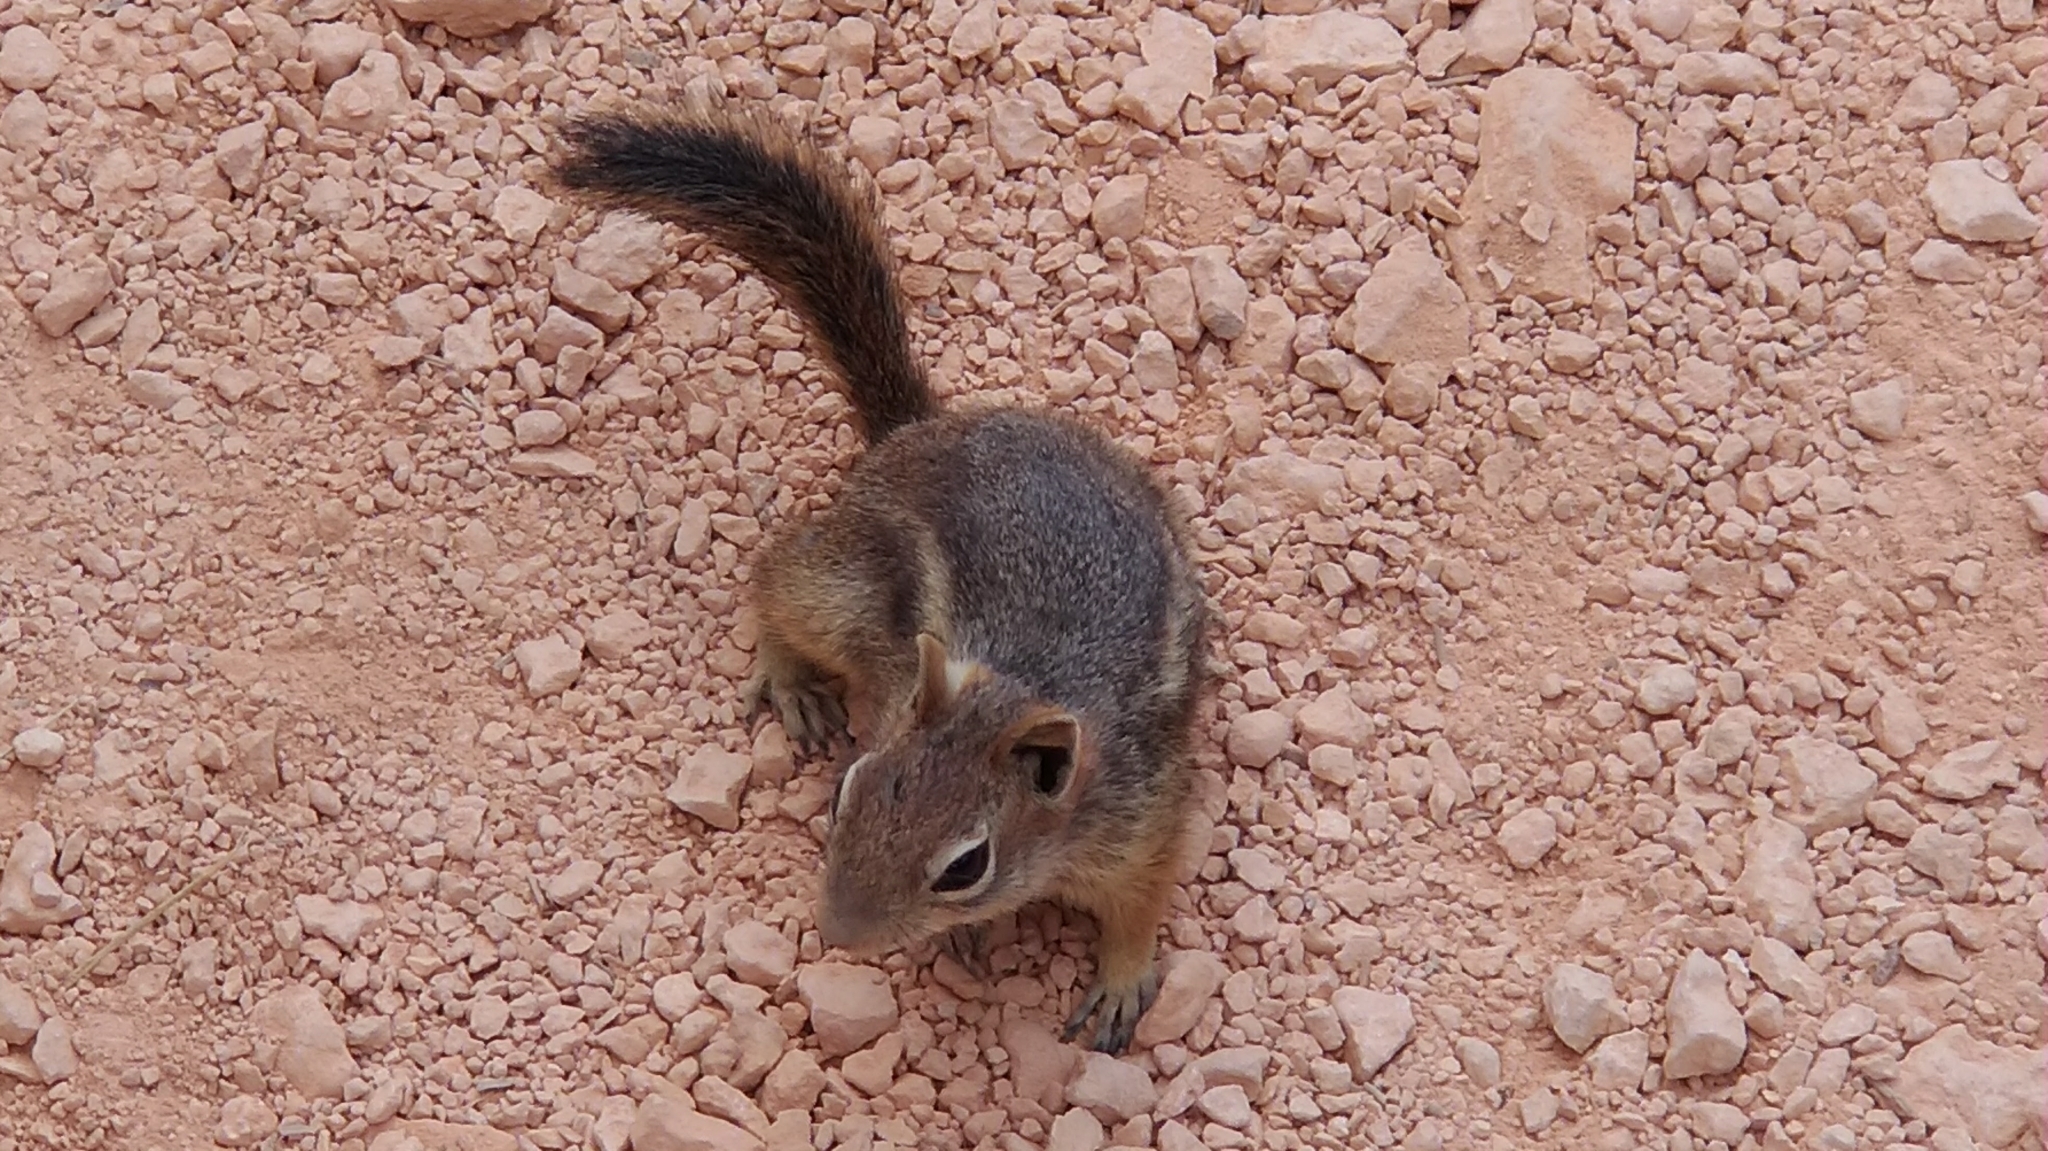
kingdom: Animalia
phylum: Chordata
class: Mammalia
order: Rodentia
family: Sciuridae
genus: Callospermophilus
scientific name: Callospermophilus lateralis
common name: Golden-mantled ground squirrel
